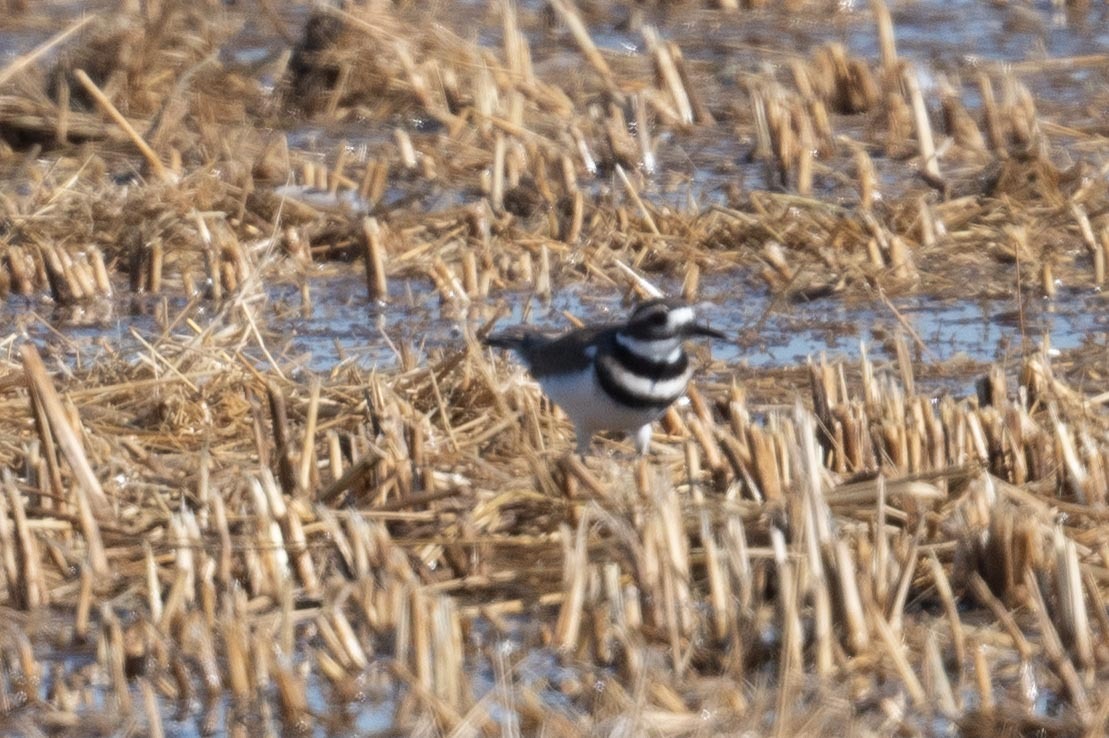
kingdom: Animalia
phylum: Chordata
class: Aves
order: Charadriiformes
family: Charadriidae
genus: Charadrius
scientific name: Charadrius vociferus
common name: Killdeer
